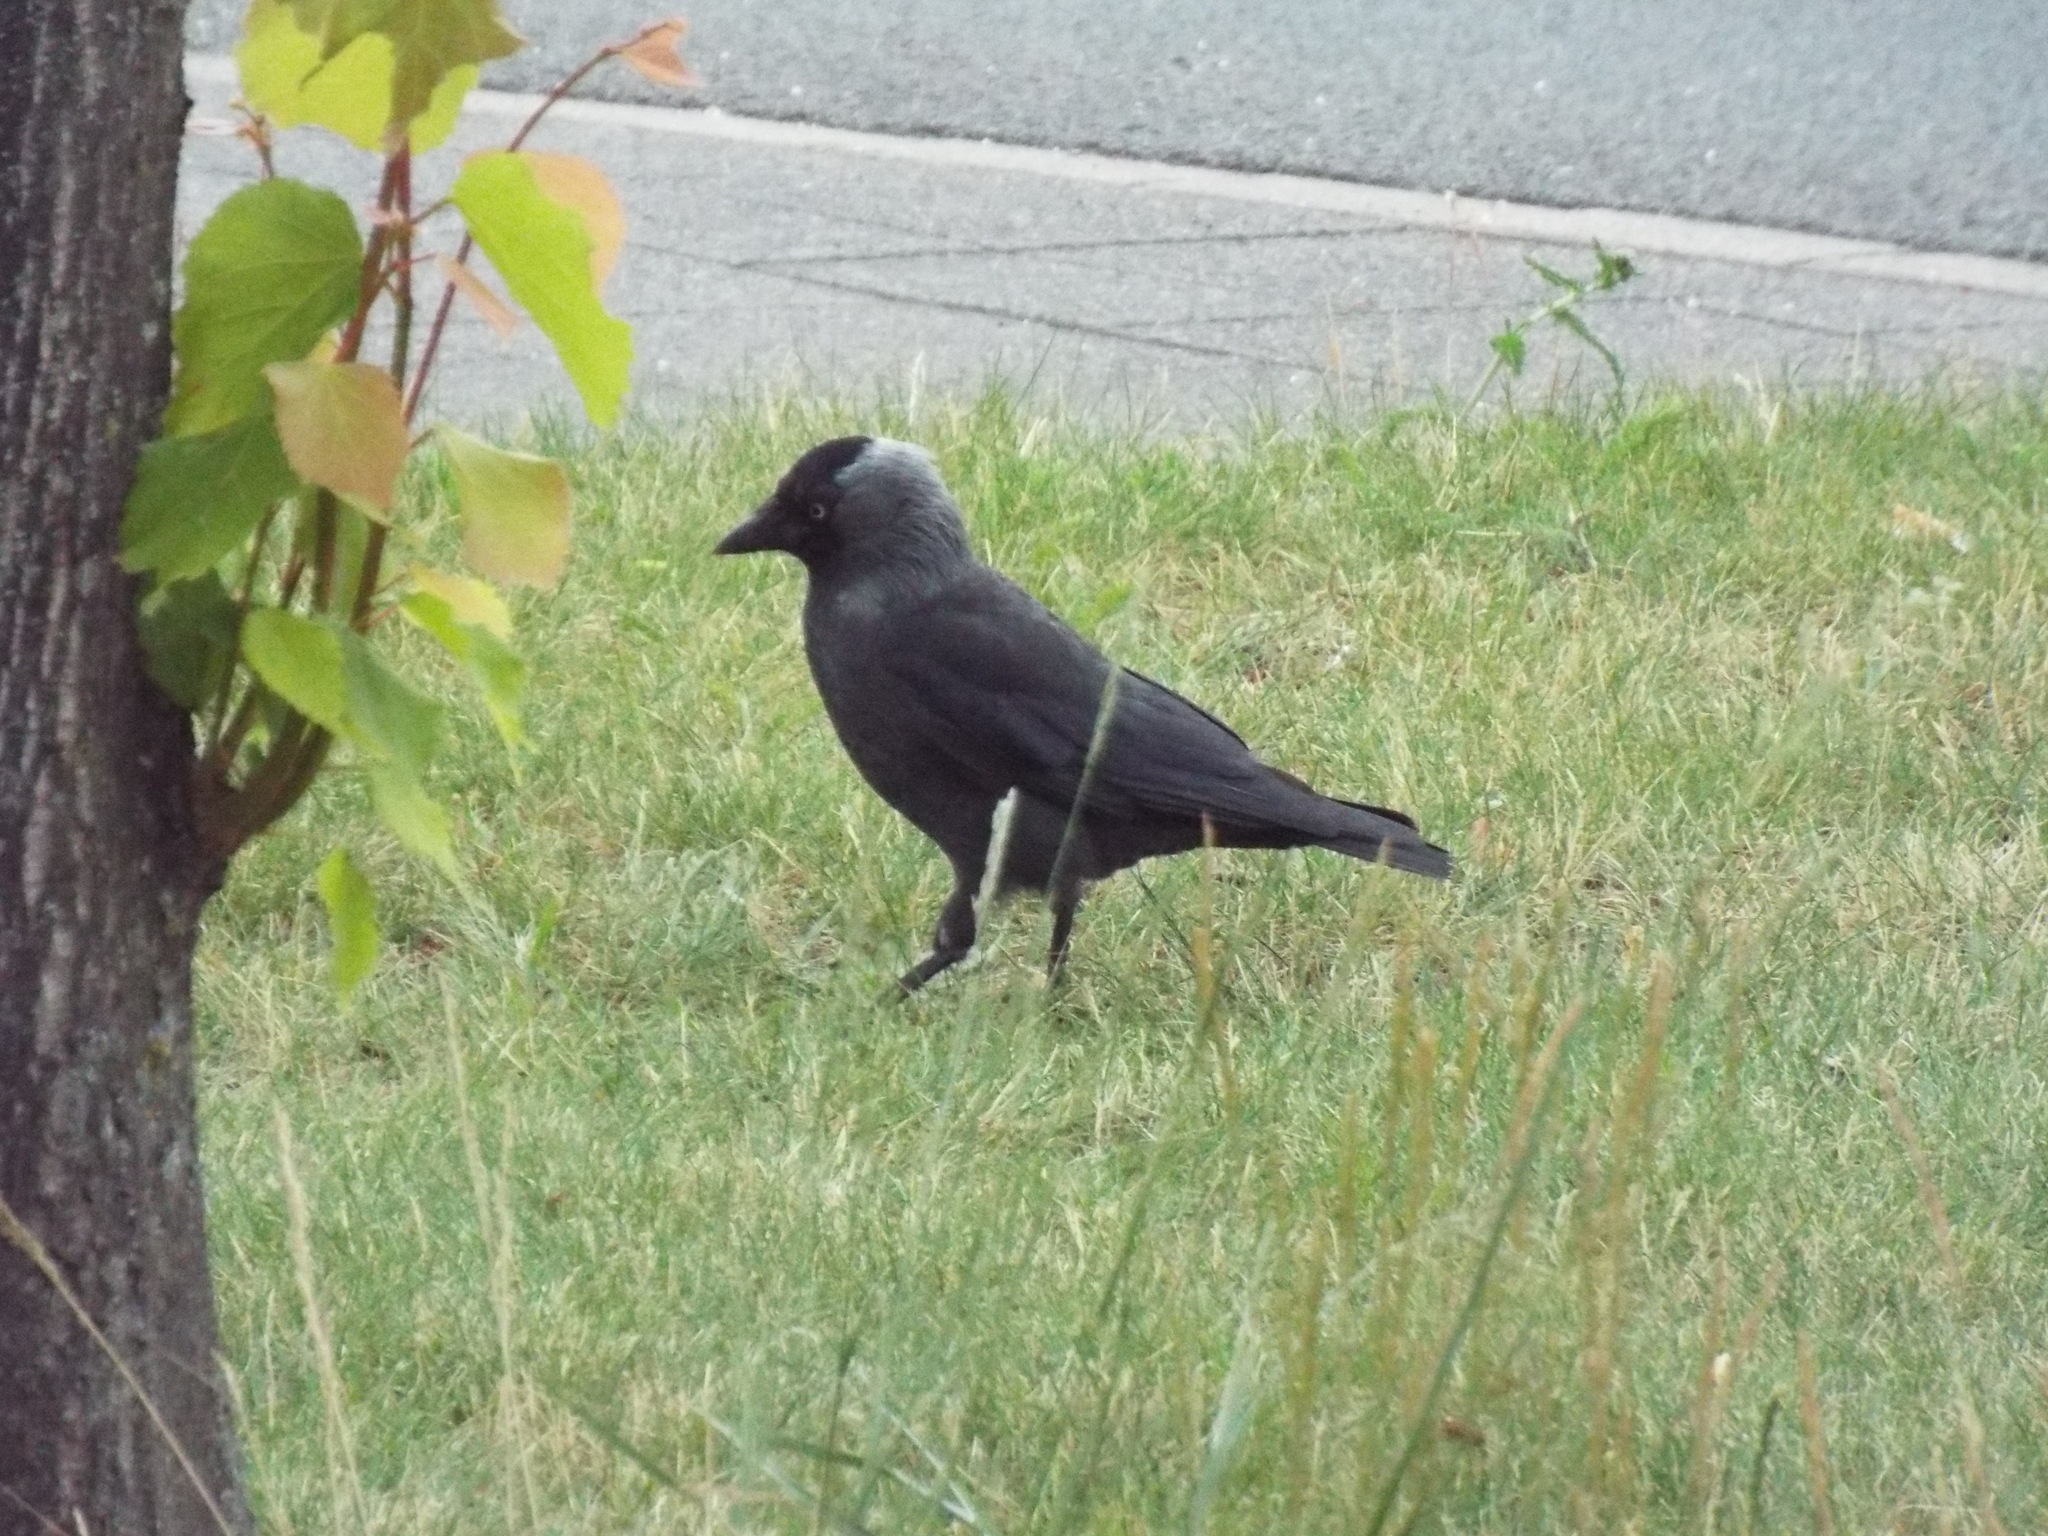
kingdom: Animalia
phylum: Chordata
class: Aves
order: Passeriformes
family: Corvidae
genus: Coloeus
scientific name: Coloeus monedula
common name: Western jackdaw
